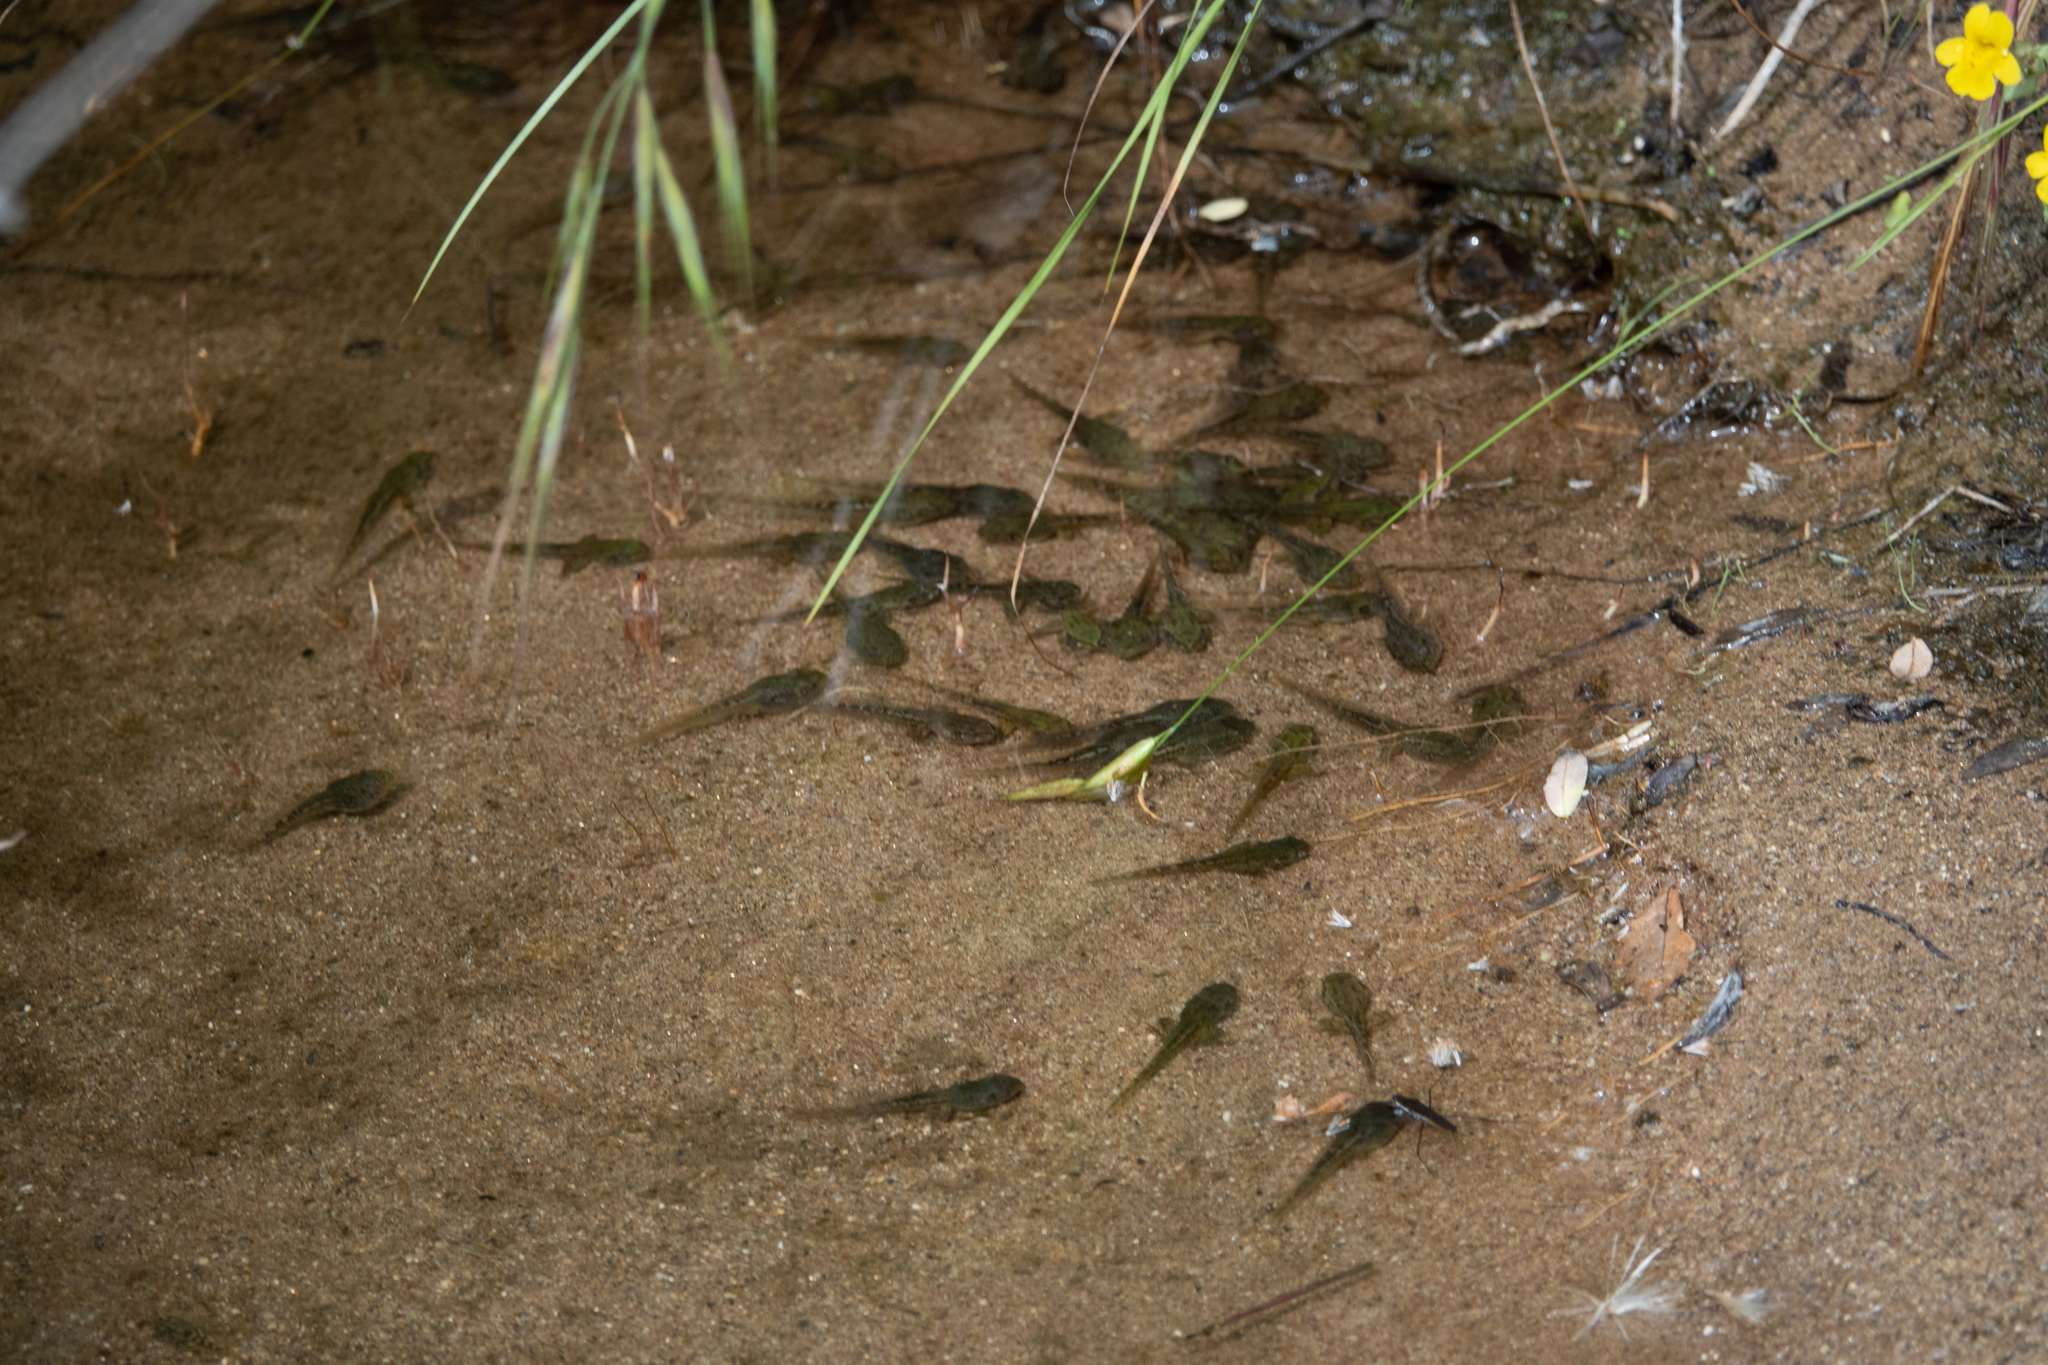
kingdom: Animalia
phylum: Chordata
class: Amphibia
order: Anura
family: Hylidae
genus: Pseudacris
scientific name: Pseudacris regilla
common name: Pacific chorus frog
